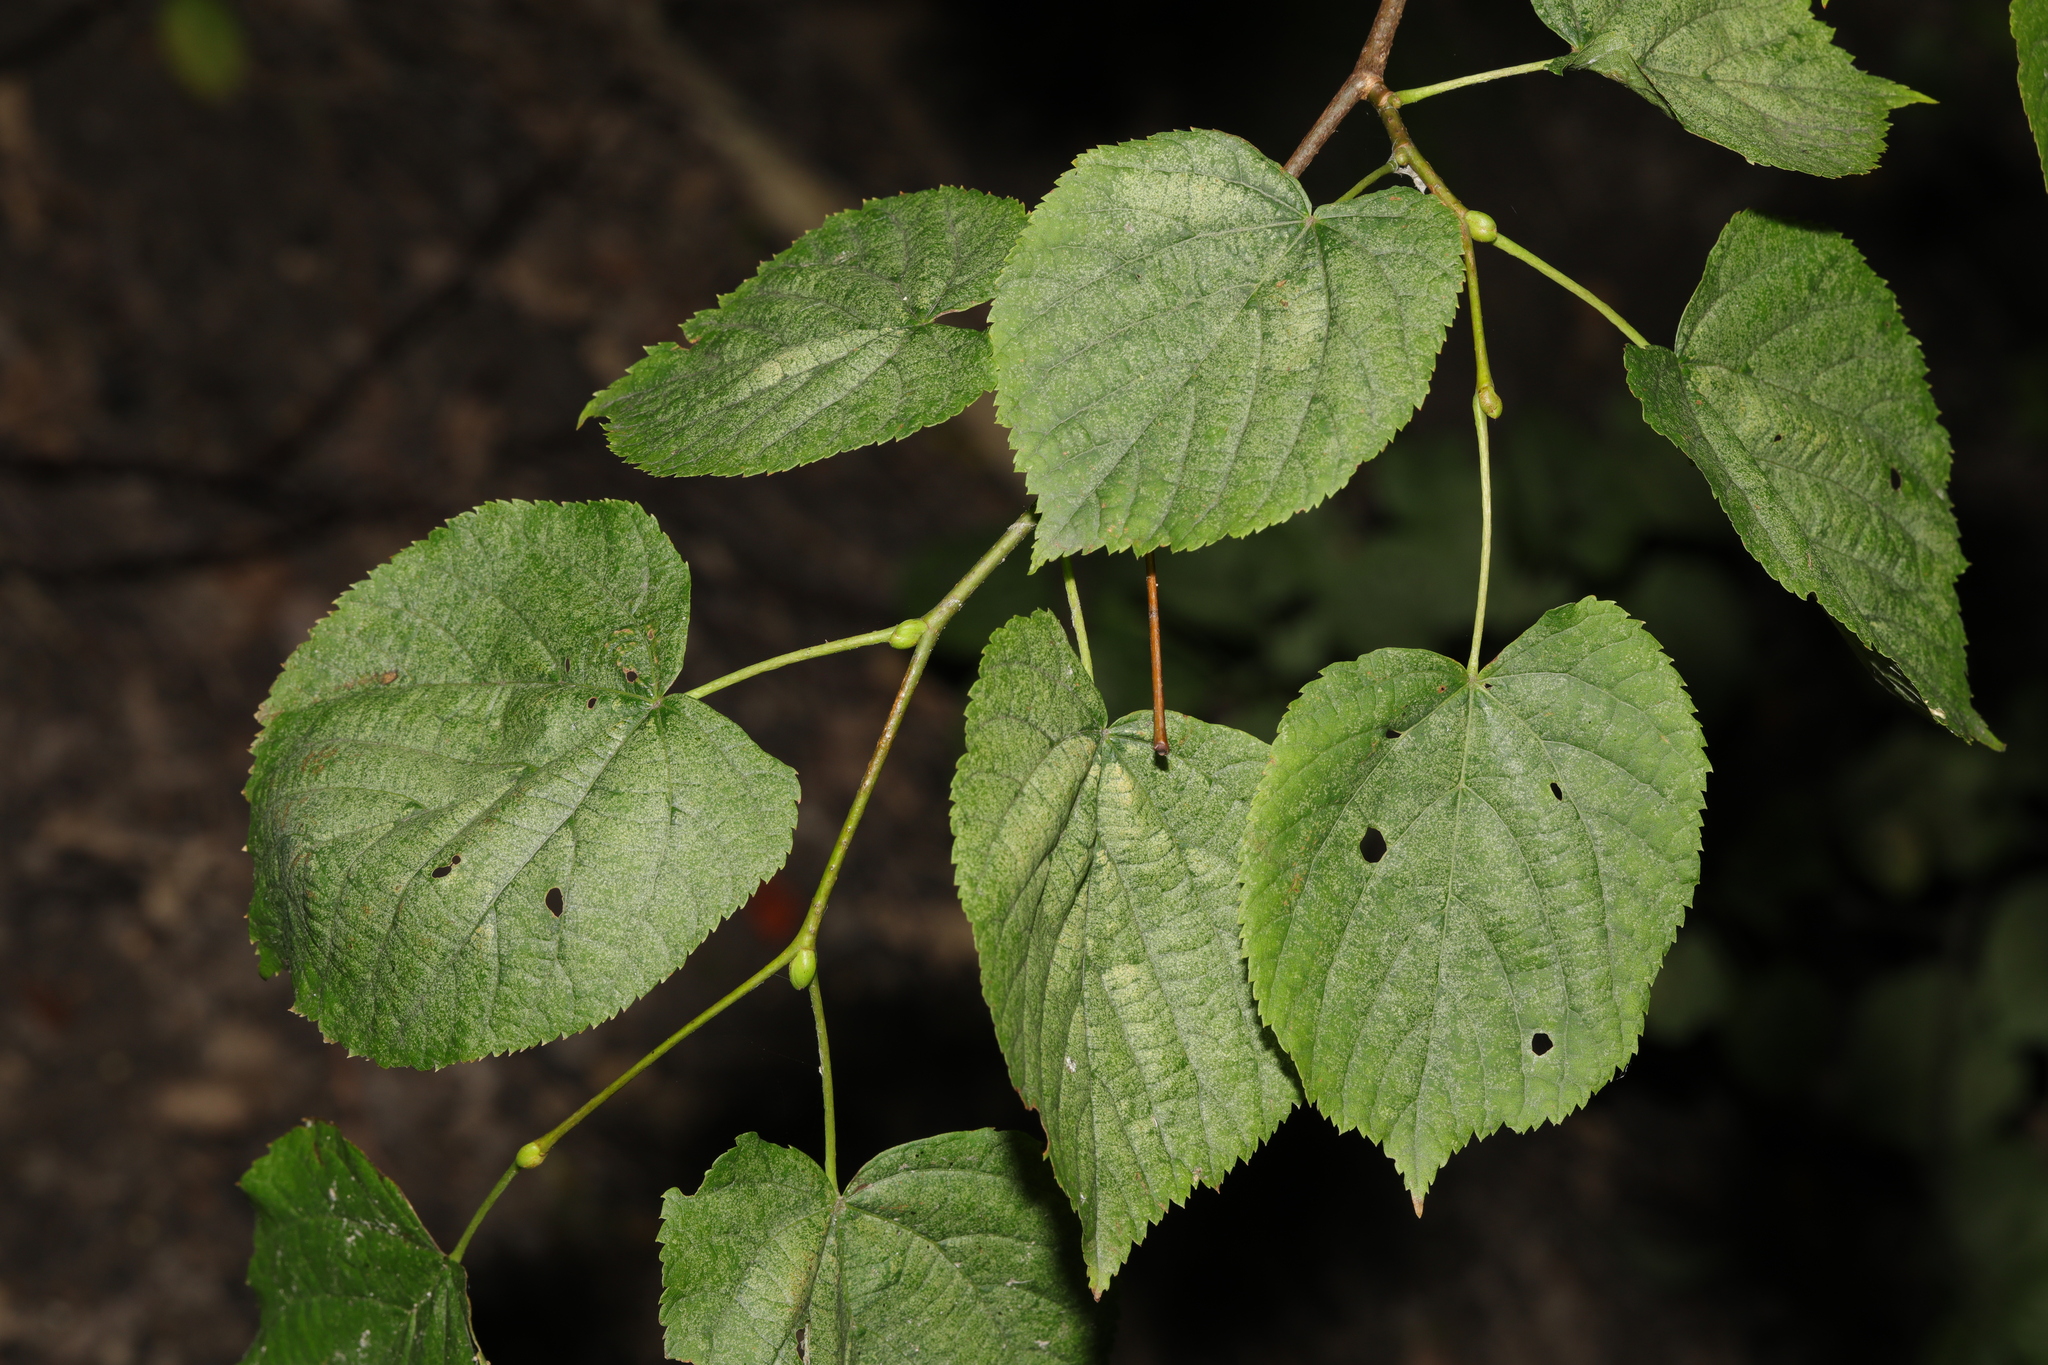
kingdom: Plantae
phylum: Tracheophyta
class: Magnoliopsida
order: Malvales
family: Malvaceae
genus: Tilia
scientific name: Tilia cordata
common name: Small-leaved lime
